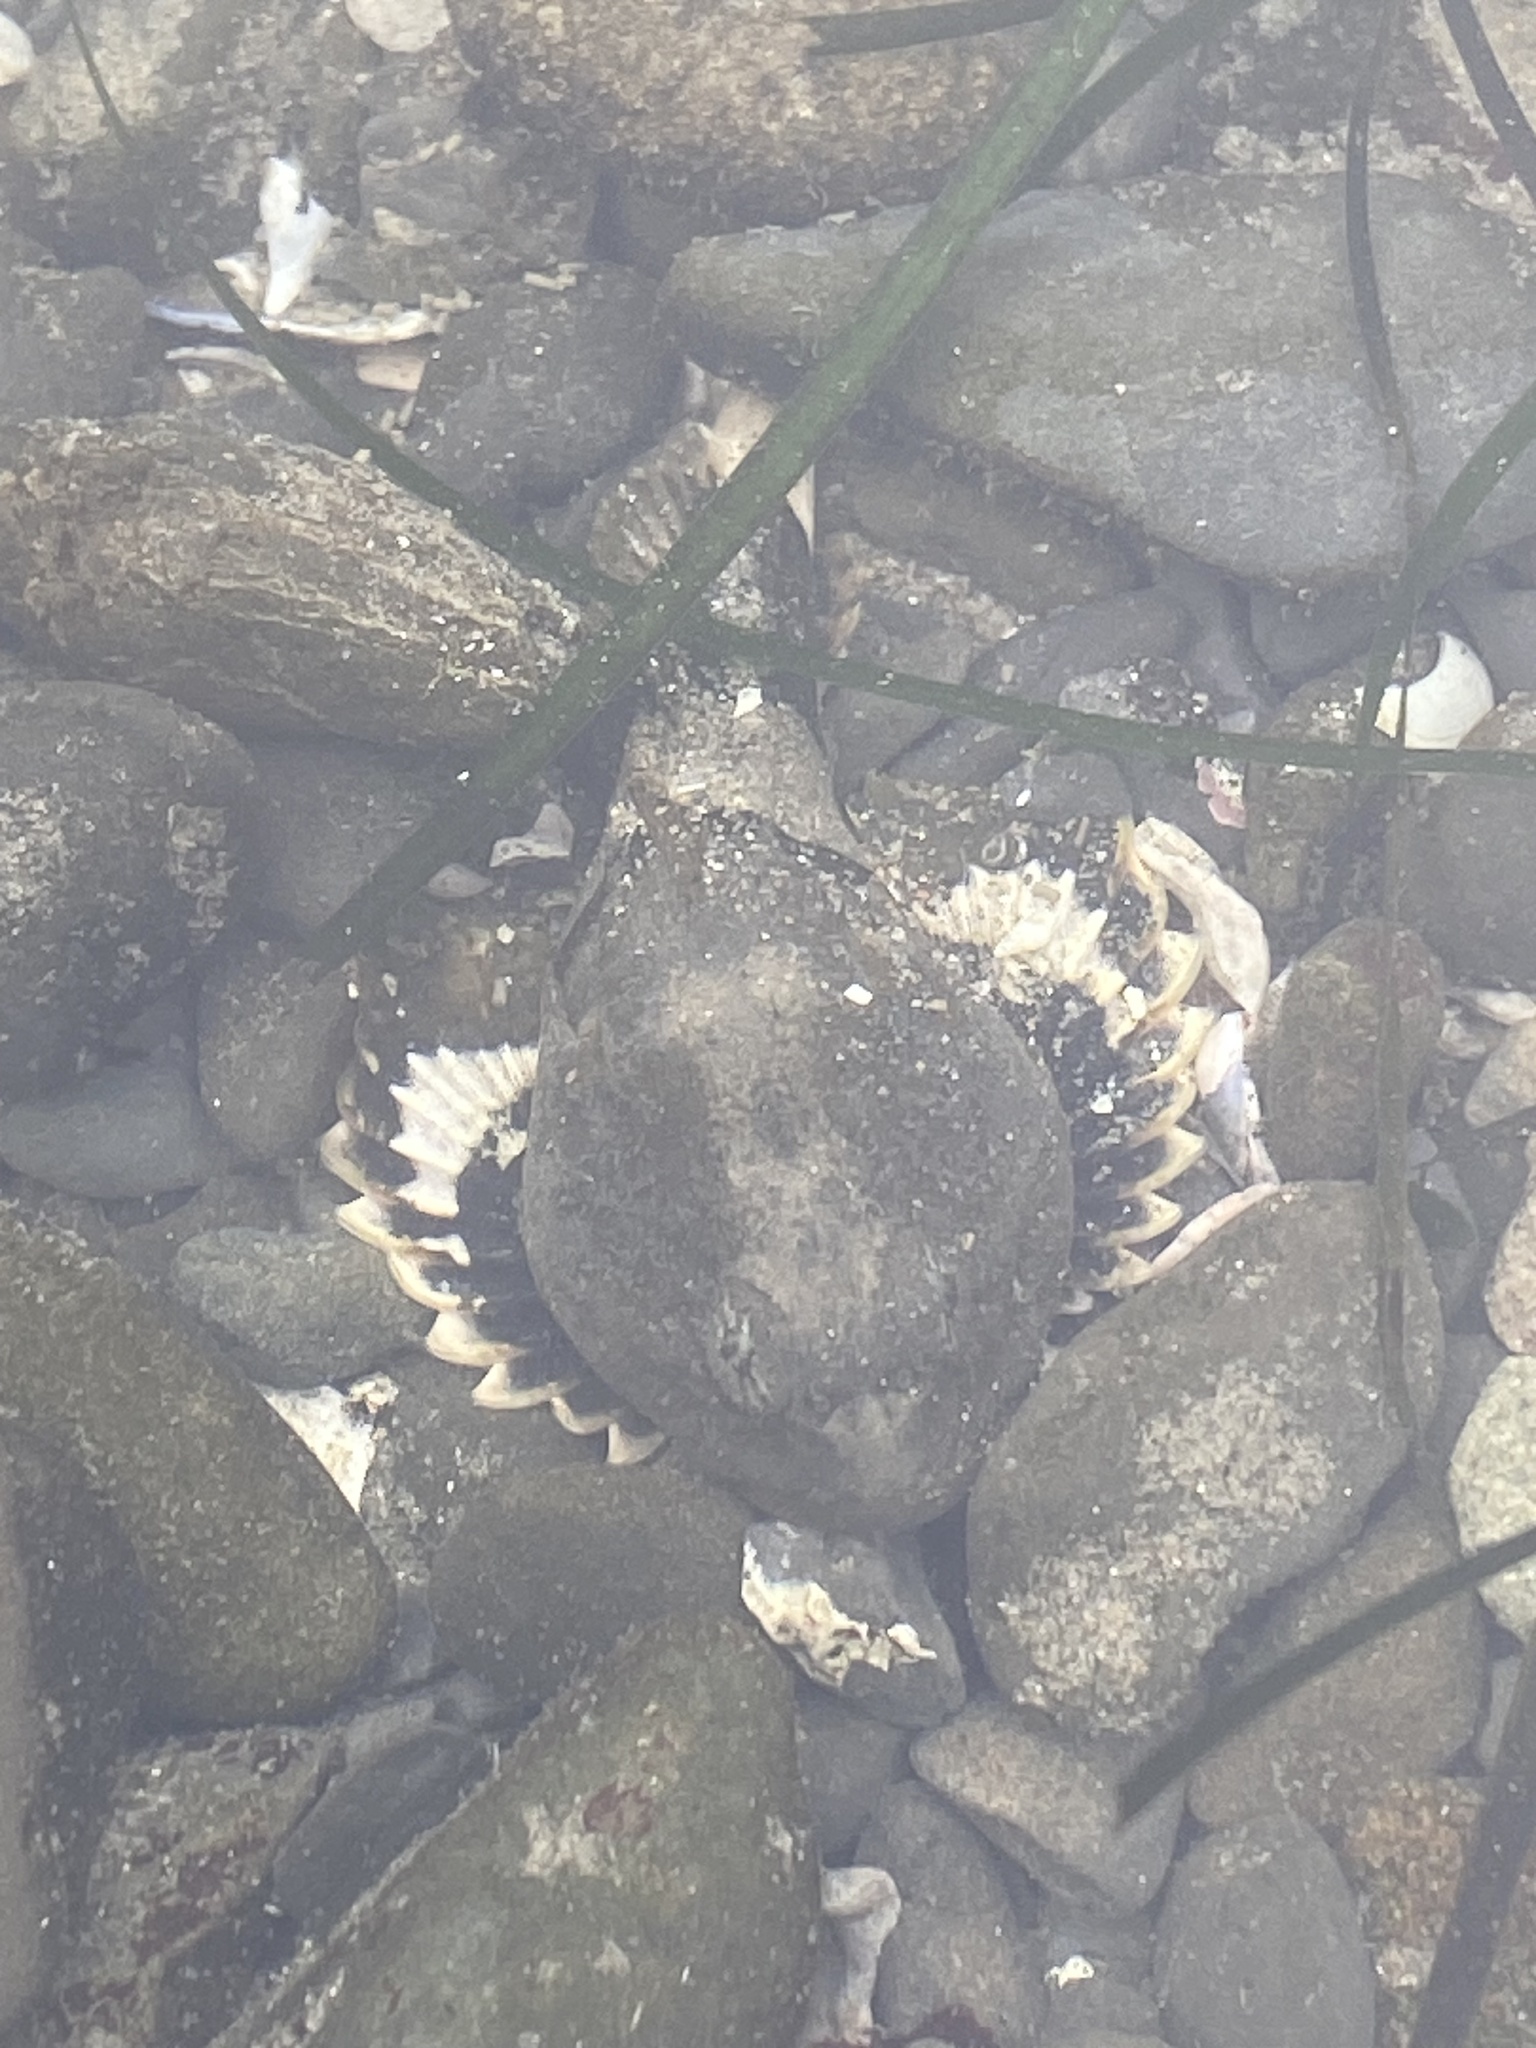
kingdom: Animalia
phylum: Chordata
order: Scorpaeniformes
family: Cottidae
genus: Enophrys
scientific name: Enophrys bison
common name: Buffalo sculpin
